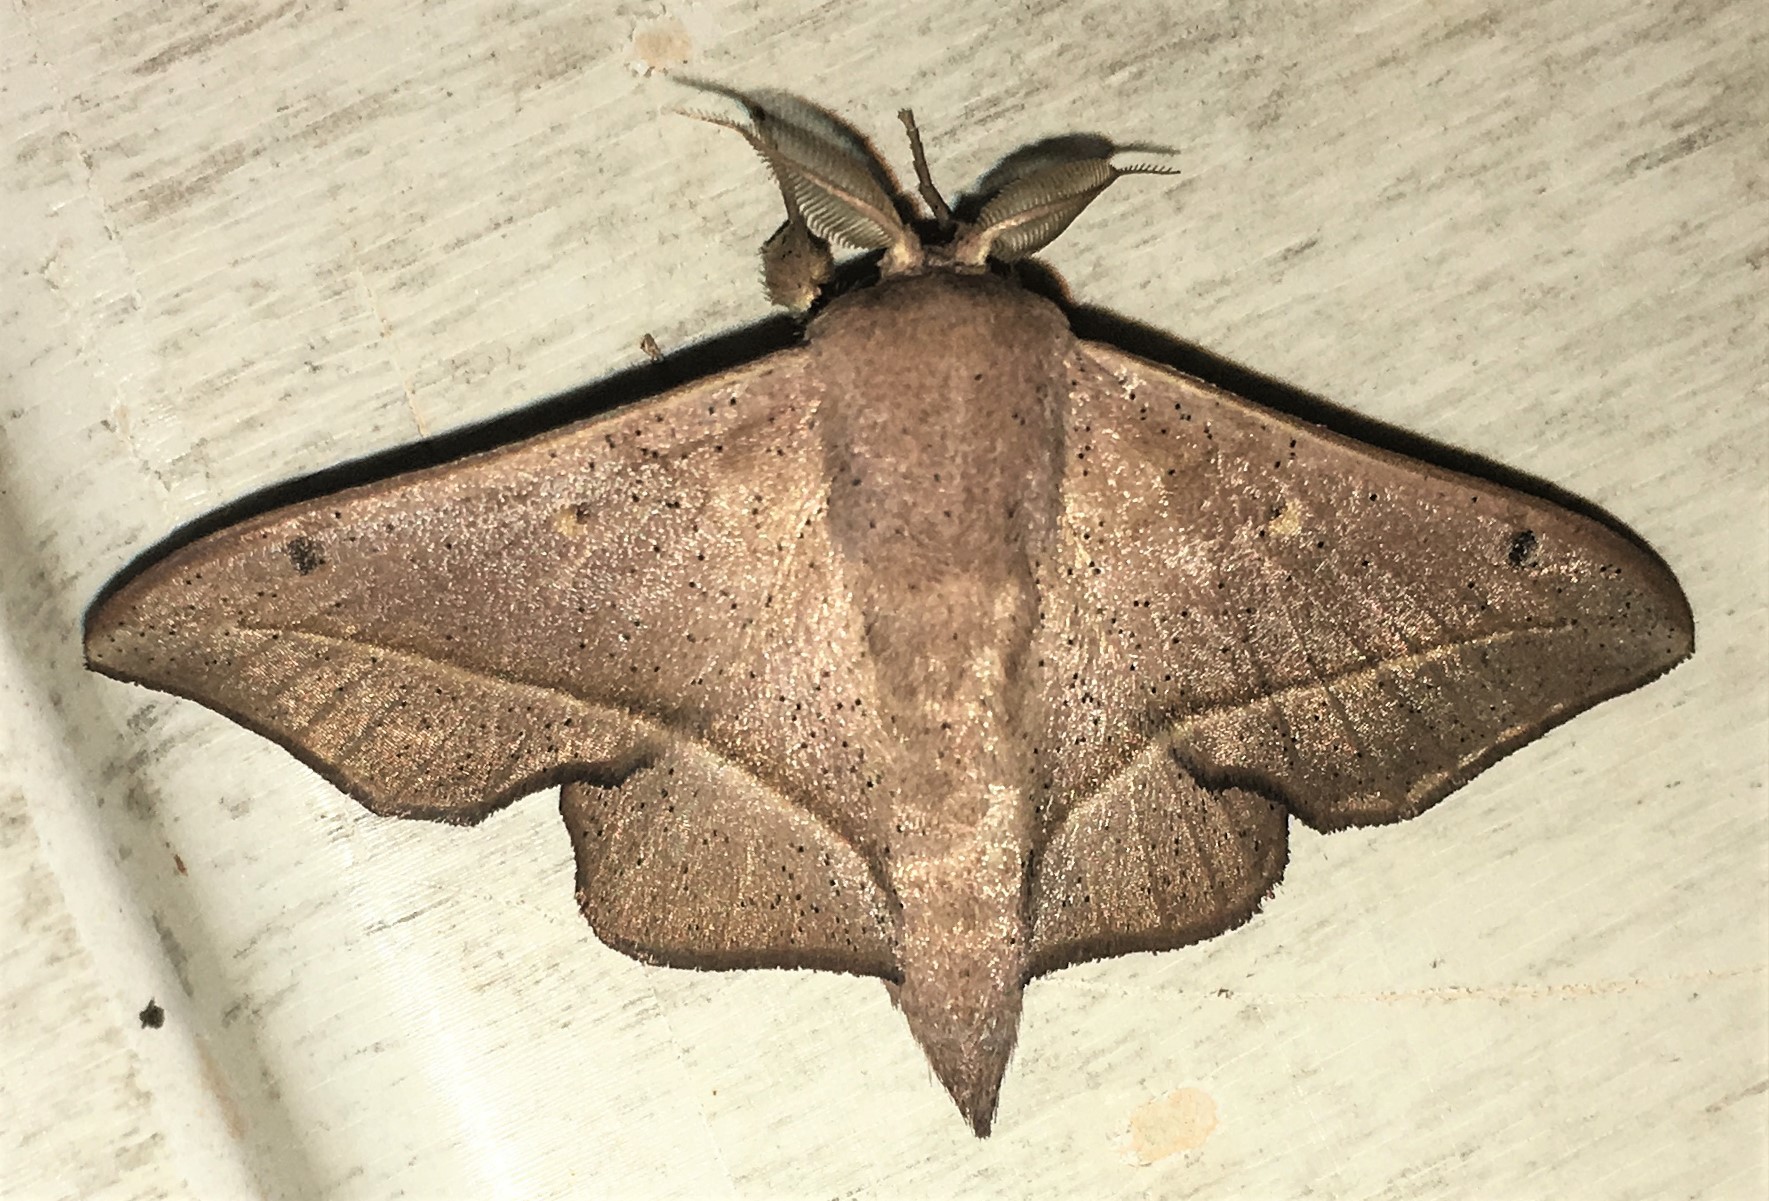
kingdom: Animalia
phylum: Arthropoda
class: Insecta
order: Lepidoptera
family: Mimallonidae
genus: Druentica
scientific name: Druentica partha
